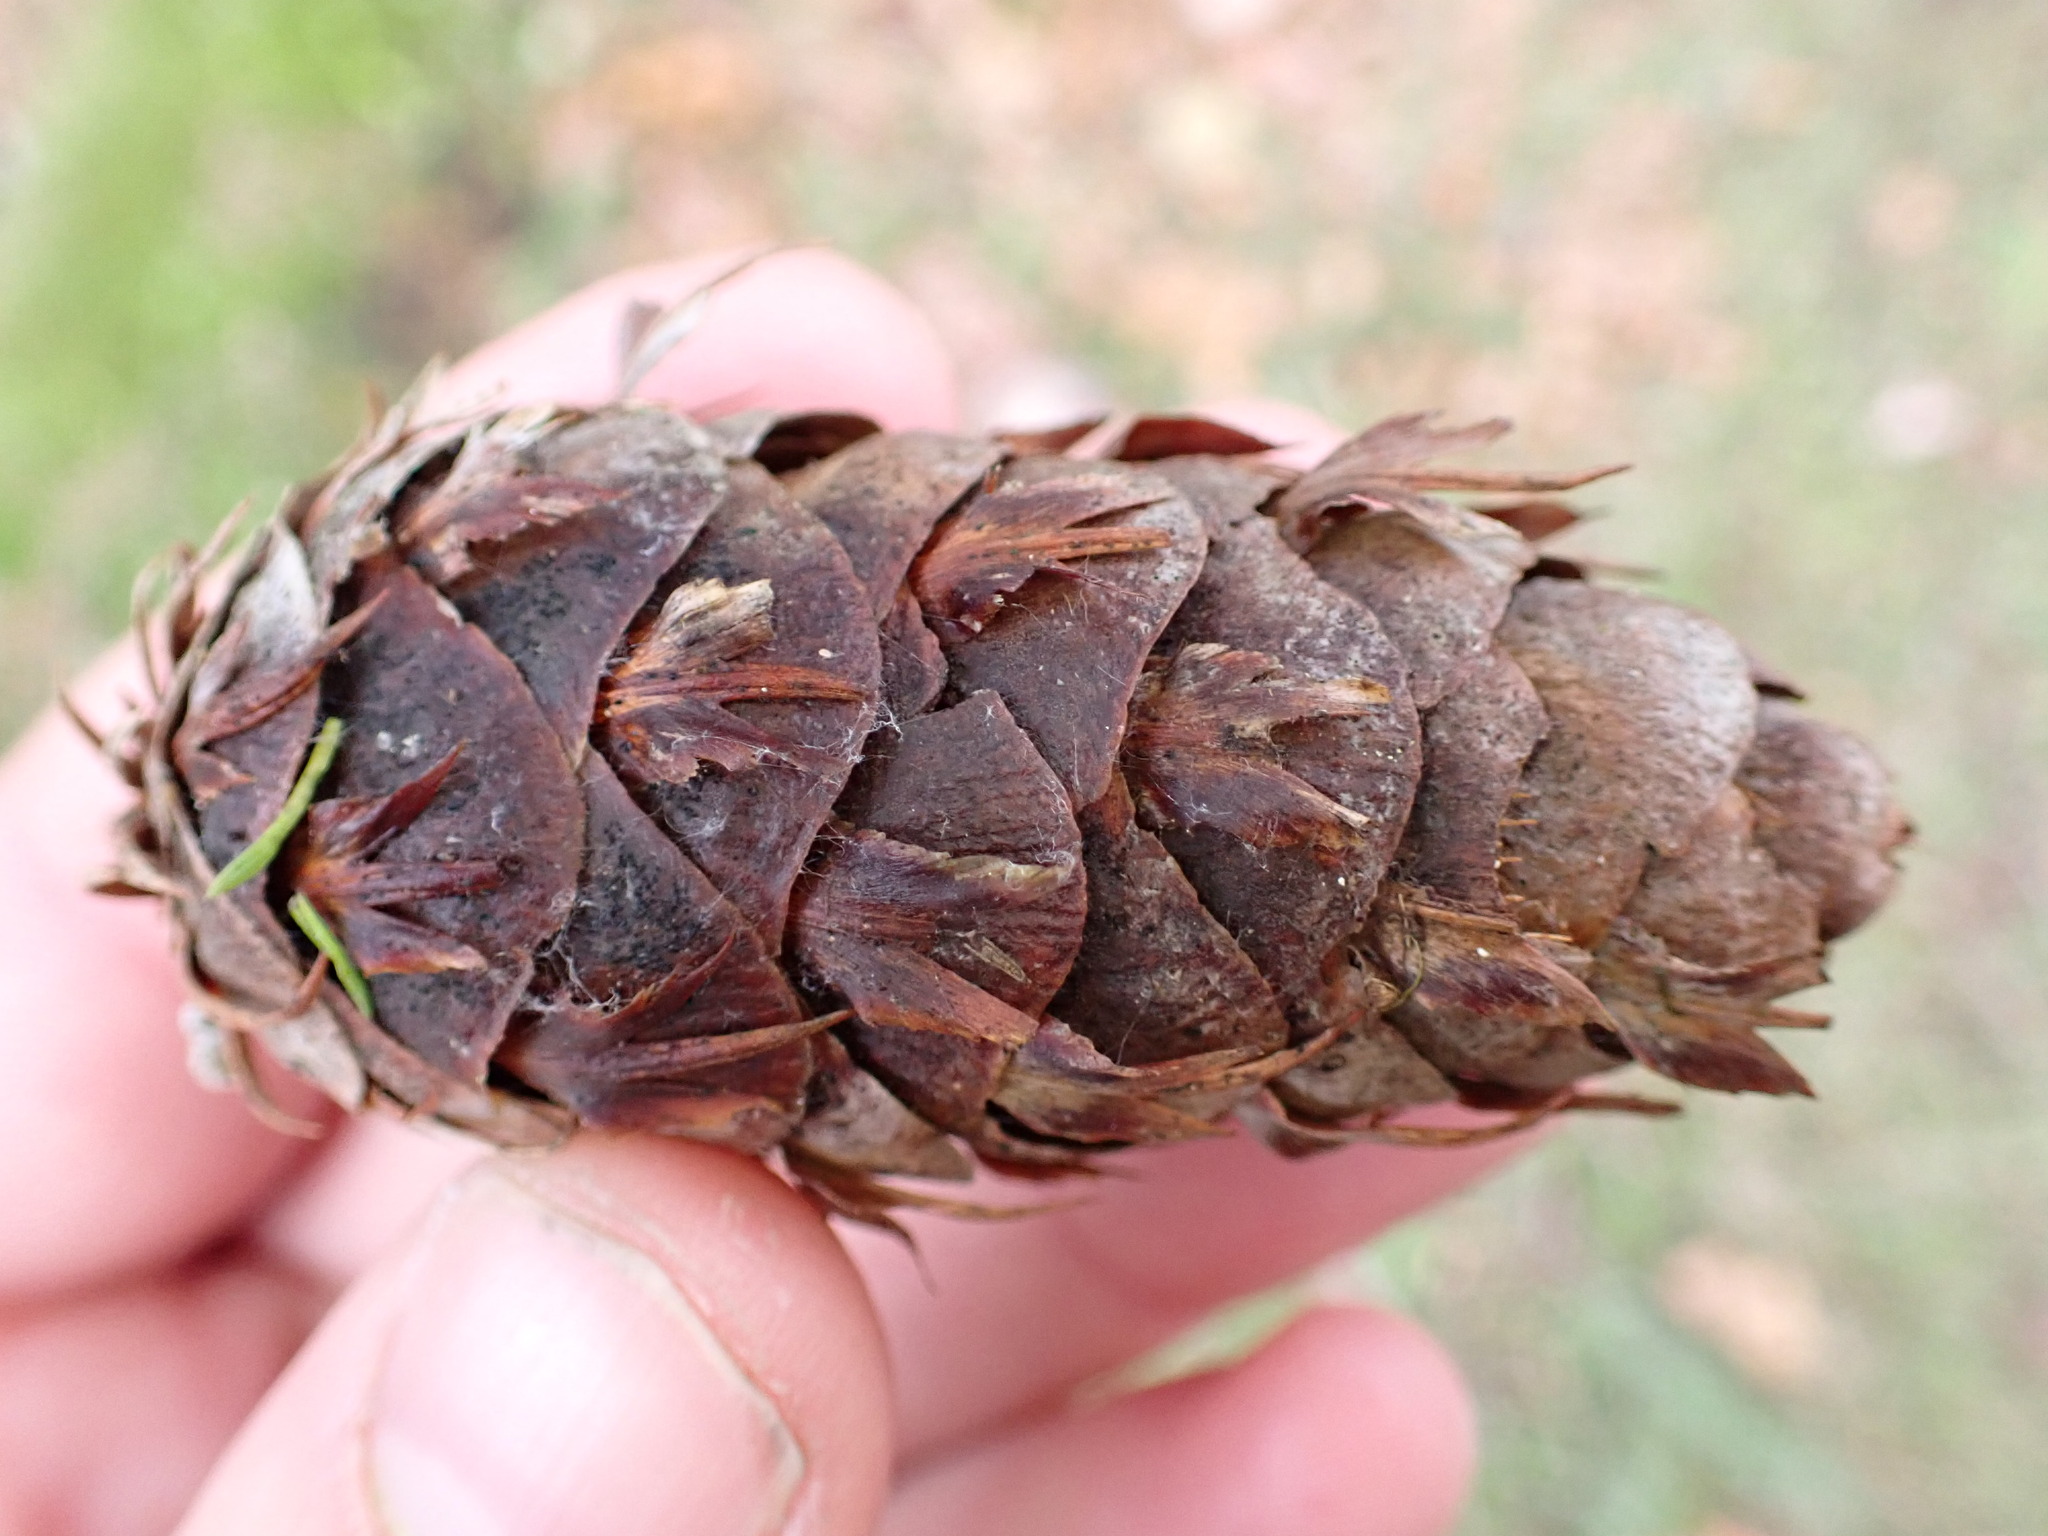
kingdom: Plantae
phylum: Tracheophyta
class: Pinopsida
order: Pinales
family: Pinaceae
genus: Pseudotsuga
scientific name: Pseudotsuga menziesii
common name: Douglas fir
